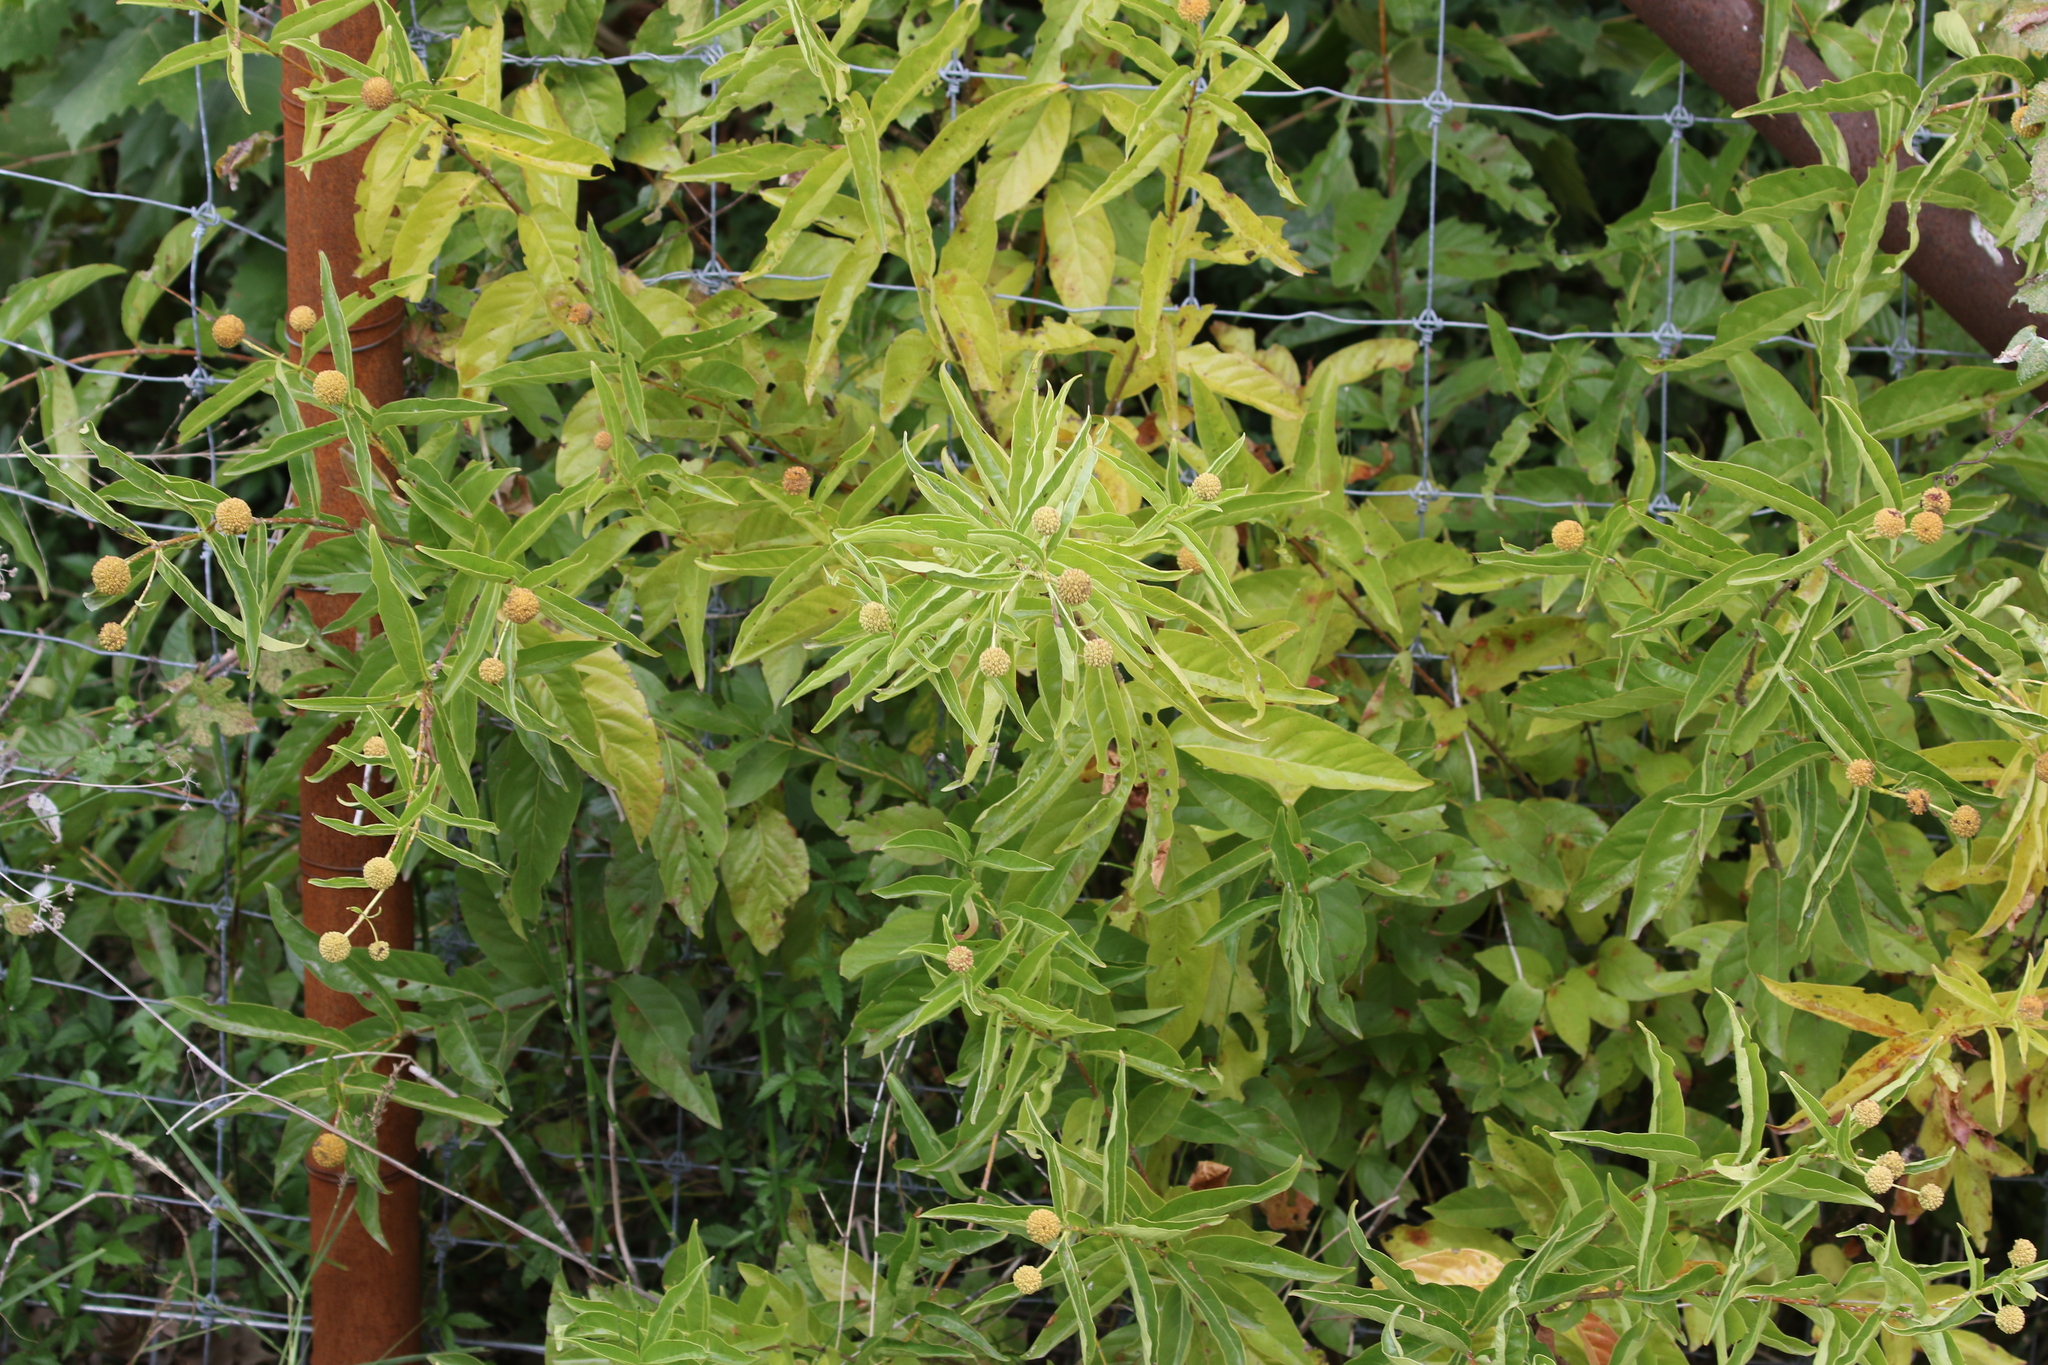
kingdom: Plantae
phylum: Tracheophyta
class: Magnoliopsida
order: Gentianales
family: Rubiaceae
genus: Cephalanthus
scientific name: Cephalanthus occidentalis
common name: Button-willow
